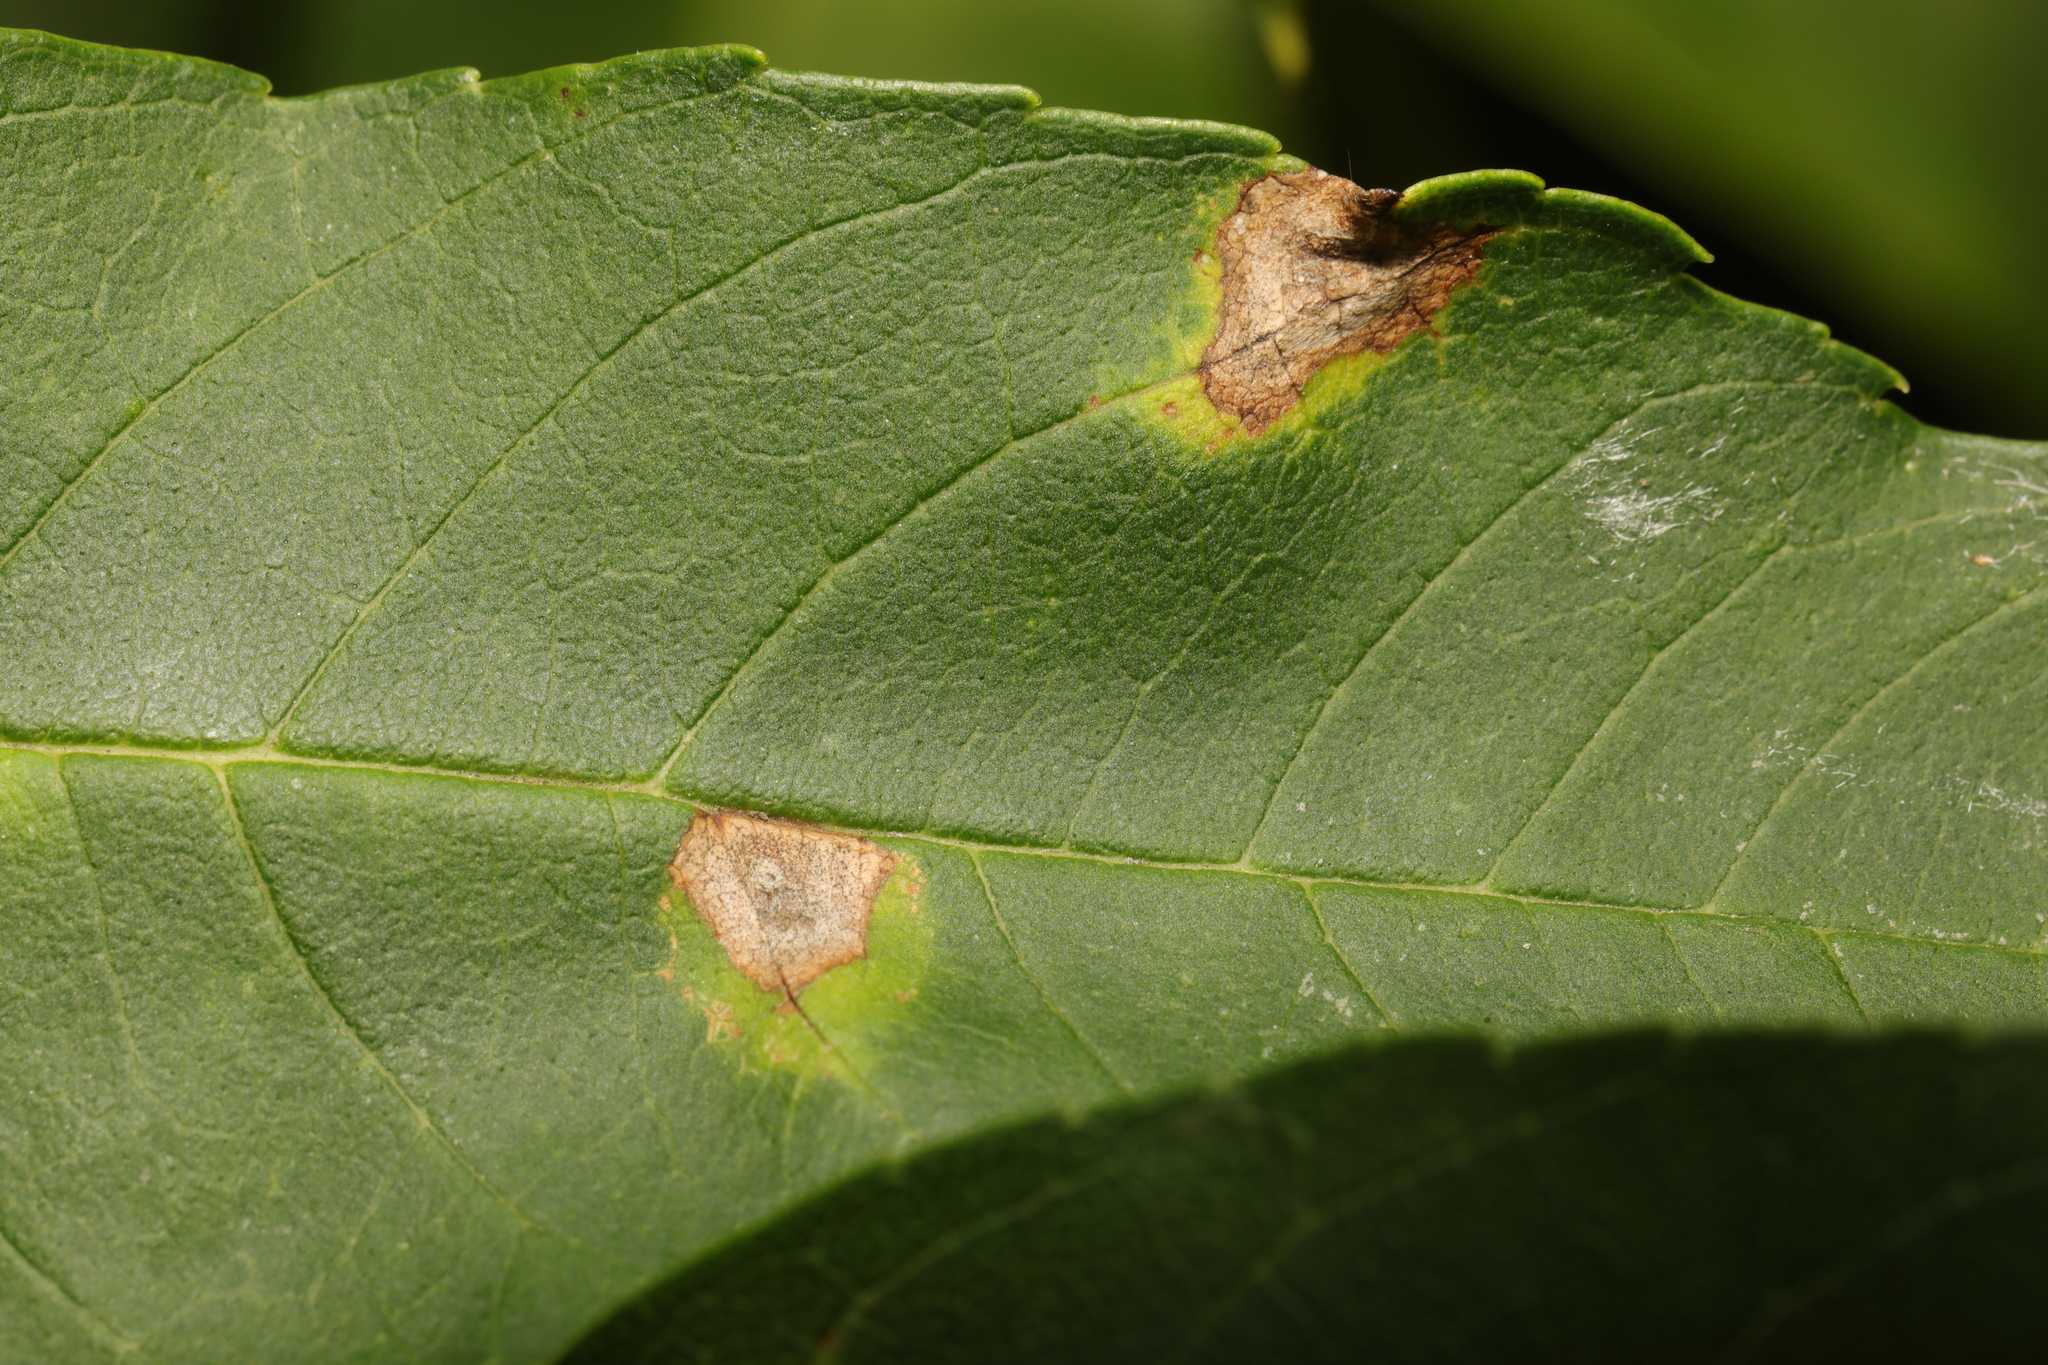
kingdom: Animalia
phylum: Arthropoda
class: Insecta
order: Diptera
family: Cecidomyiidae
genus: Dasineura
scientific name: Dasineura fraxinea
